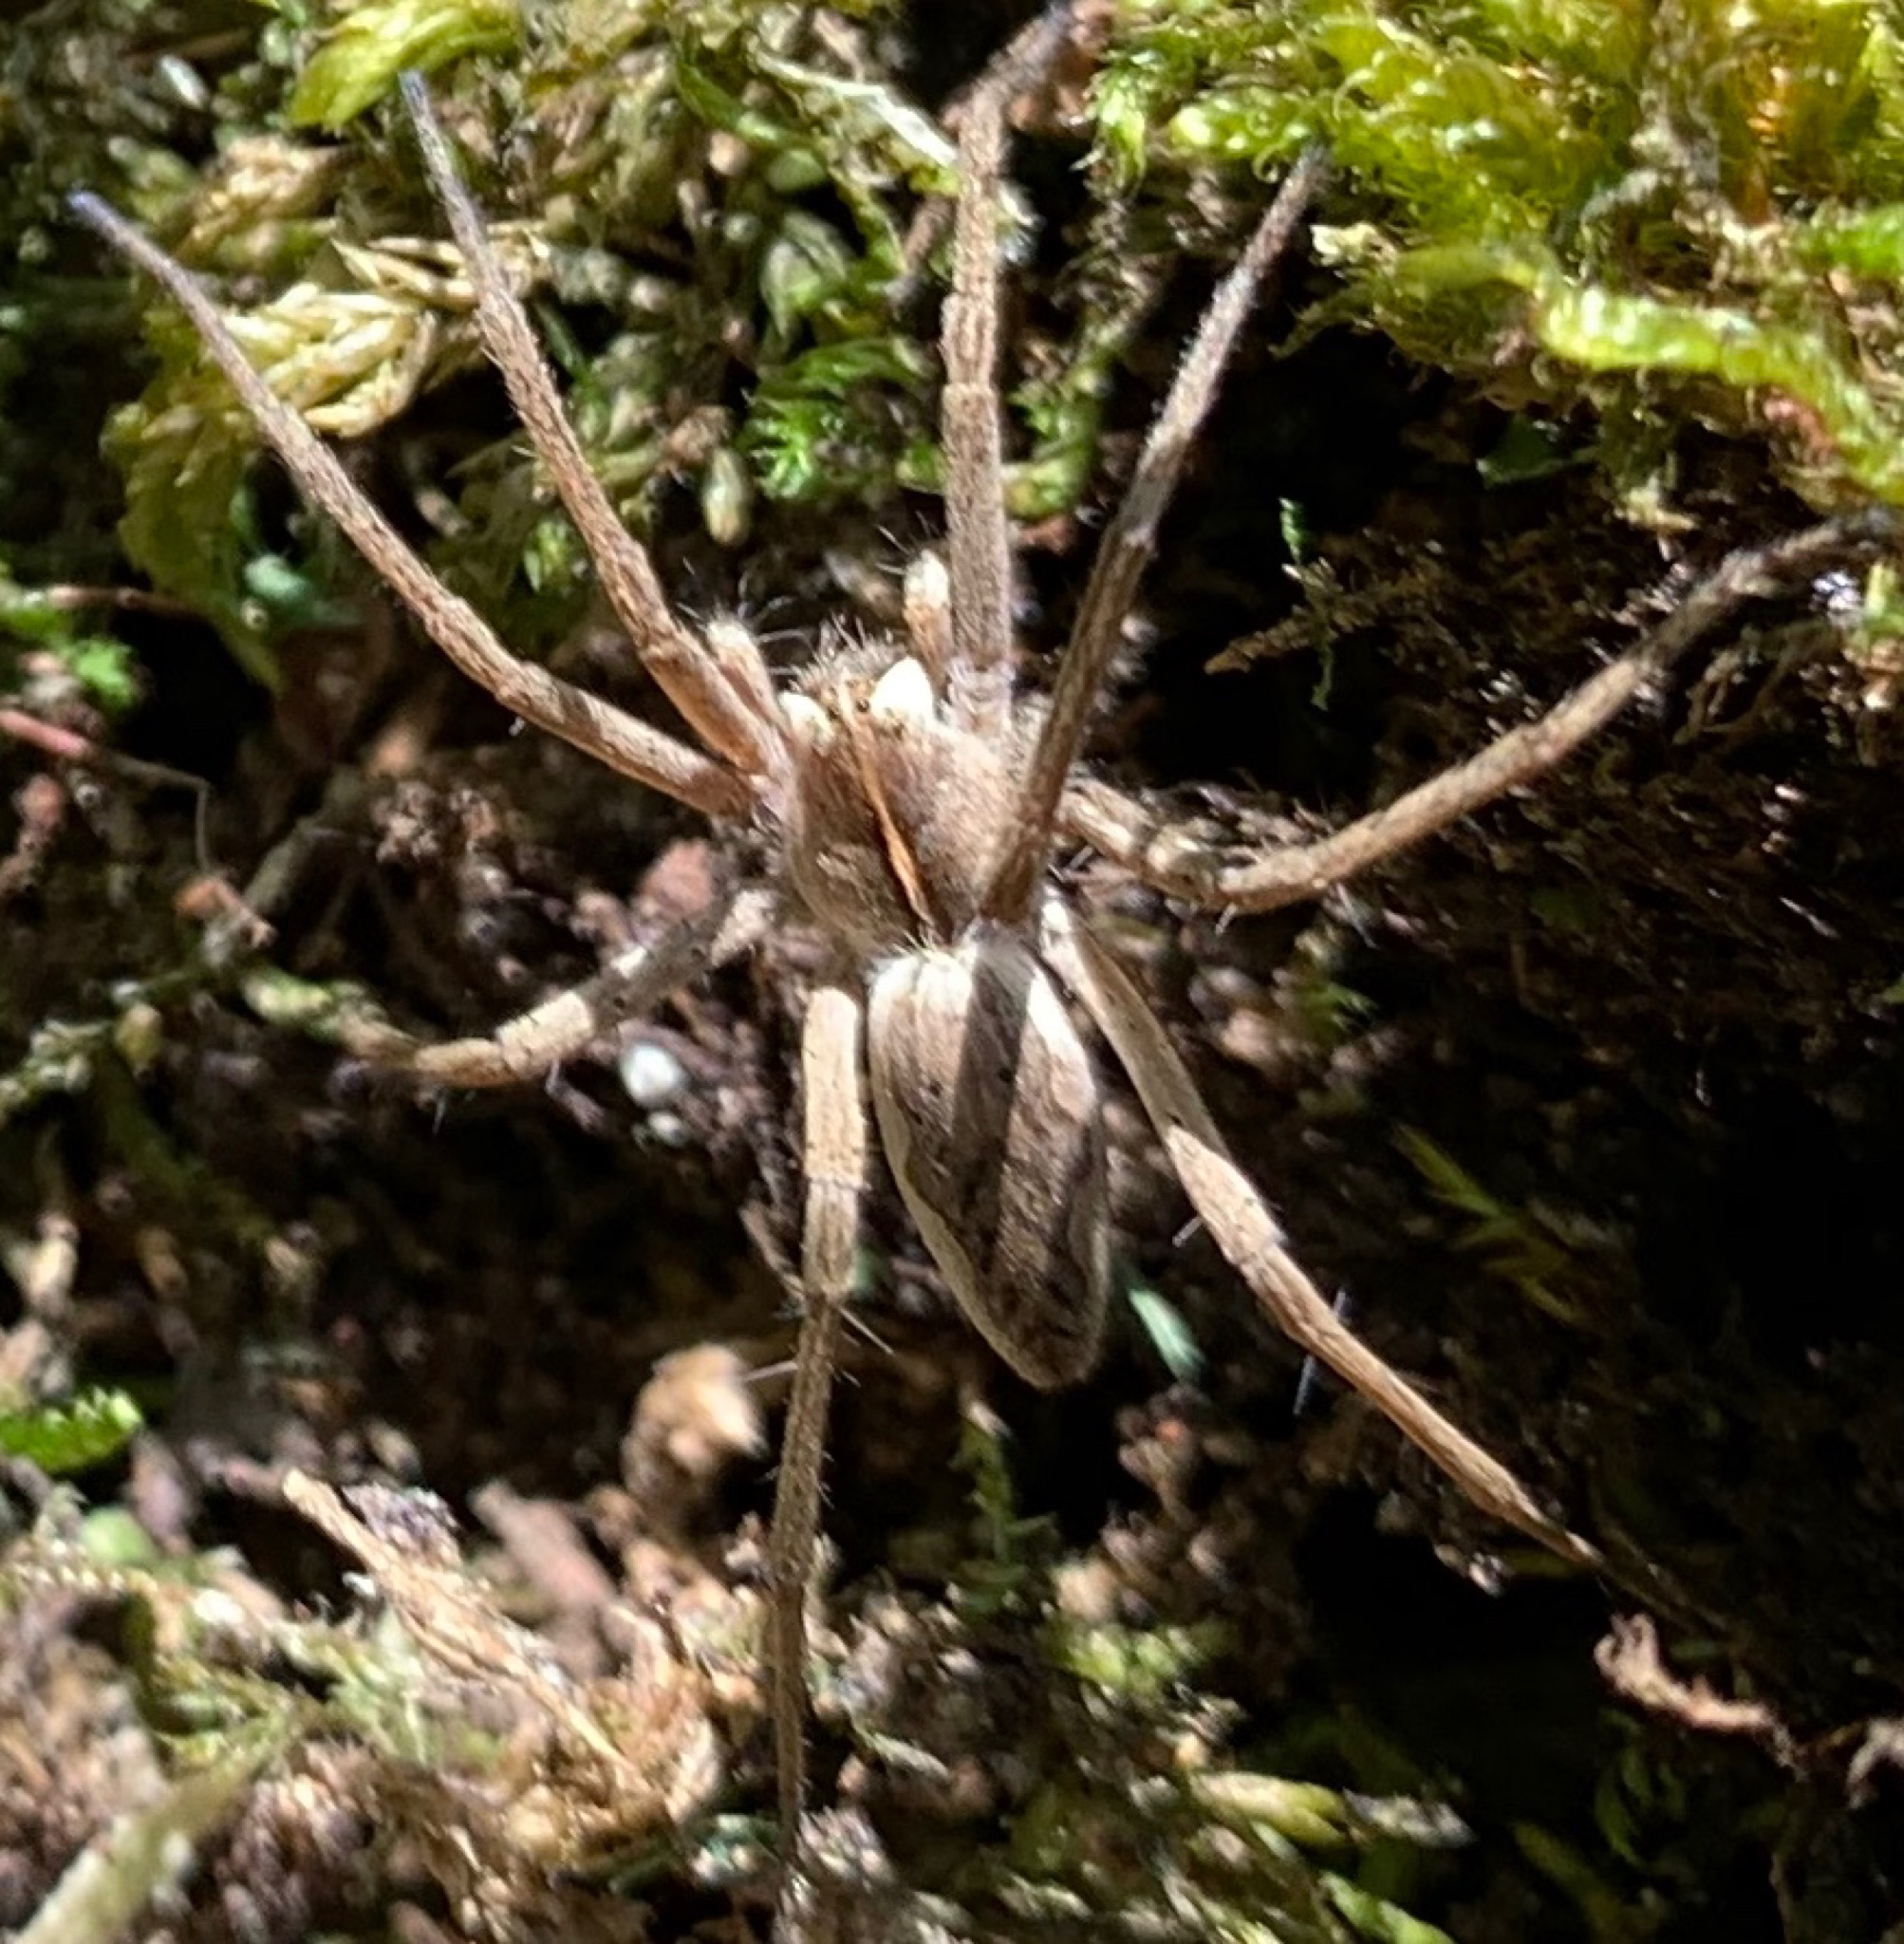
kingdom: Animalia
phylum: Arthropoda
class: Arachnida
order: Araneae
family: Pisauridae
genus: Pisaura
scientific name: Pisaura mirabilis
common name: Tent spider
